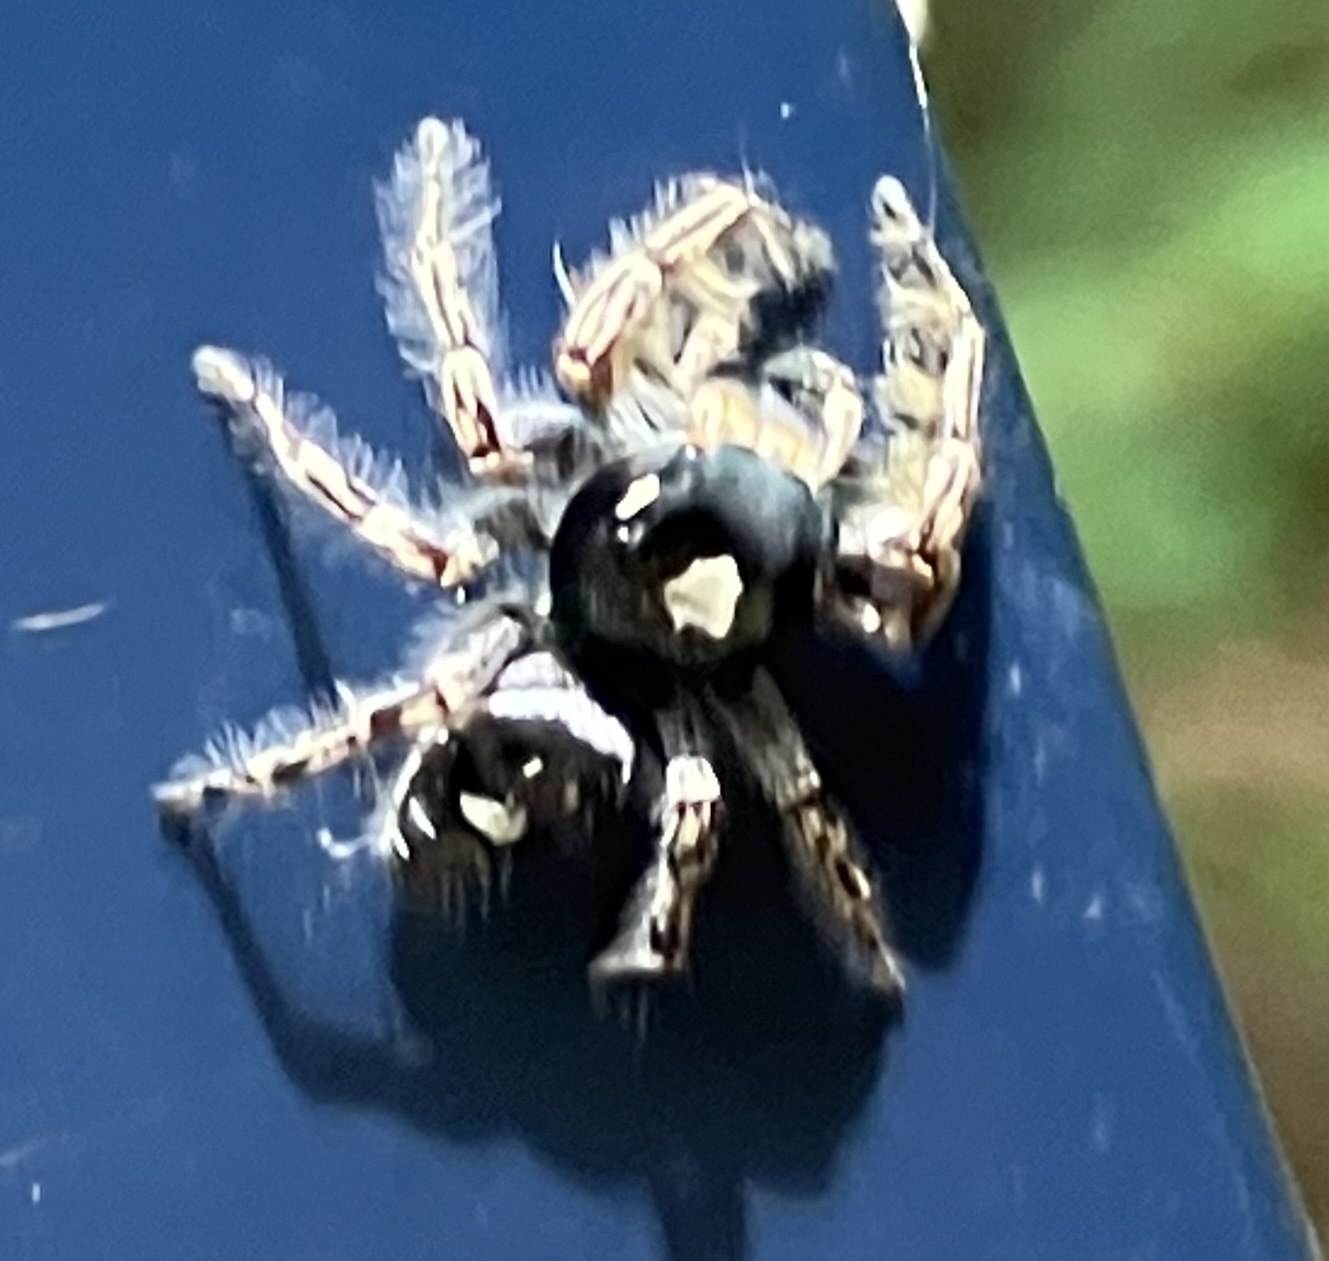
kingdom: Animalia
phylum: Arthropoda
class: Arachnida
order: Araneae
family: Salticidae
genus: Phidippus
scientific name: Phidippus putnami
